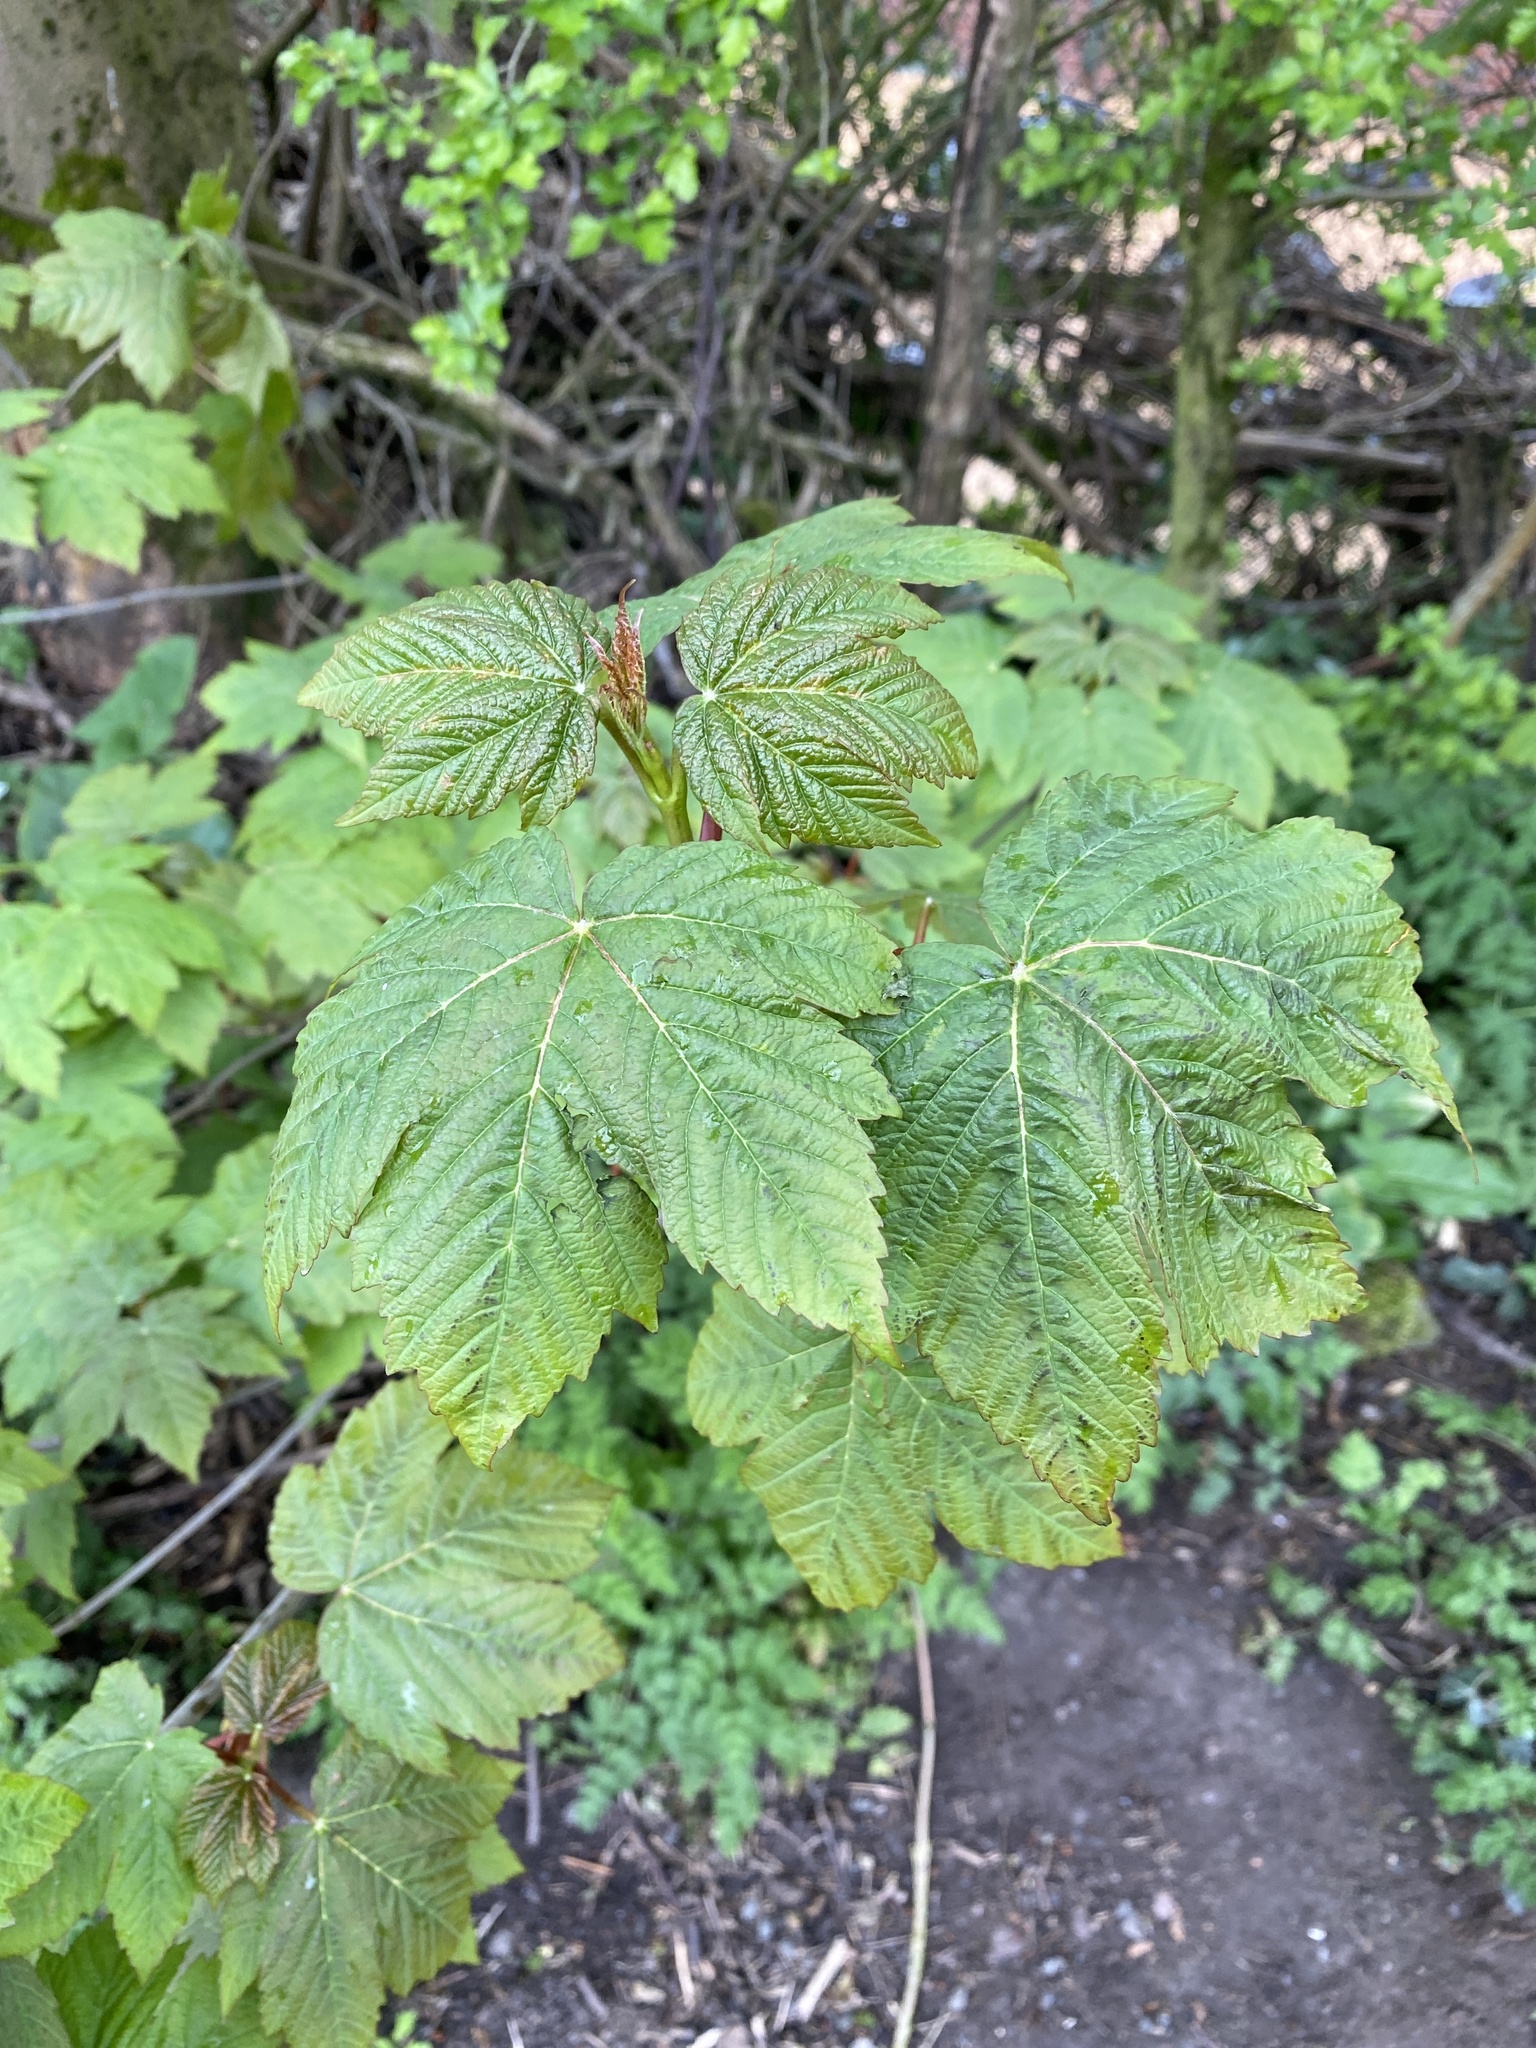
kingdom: Plantae
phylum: Tracheophyta
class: Magnoliopsida
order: Sapindales
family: Sapindaceae
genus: Acer
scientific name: Acer pseudoplatanus
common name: Sycamore
